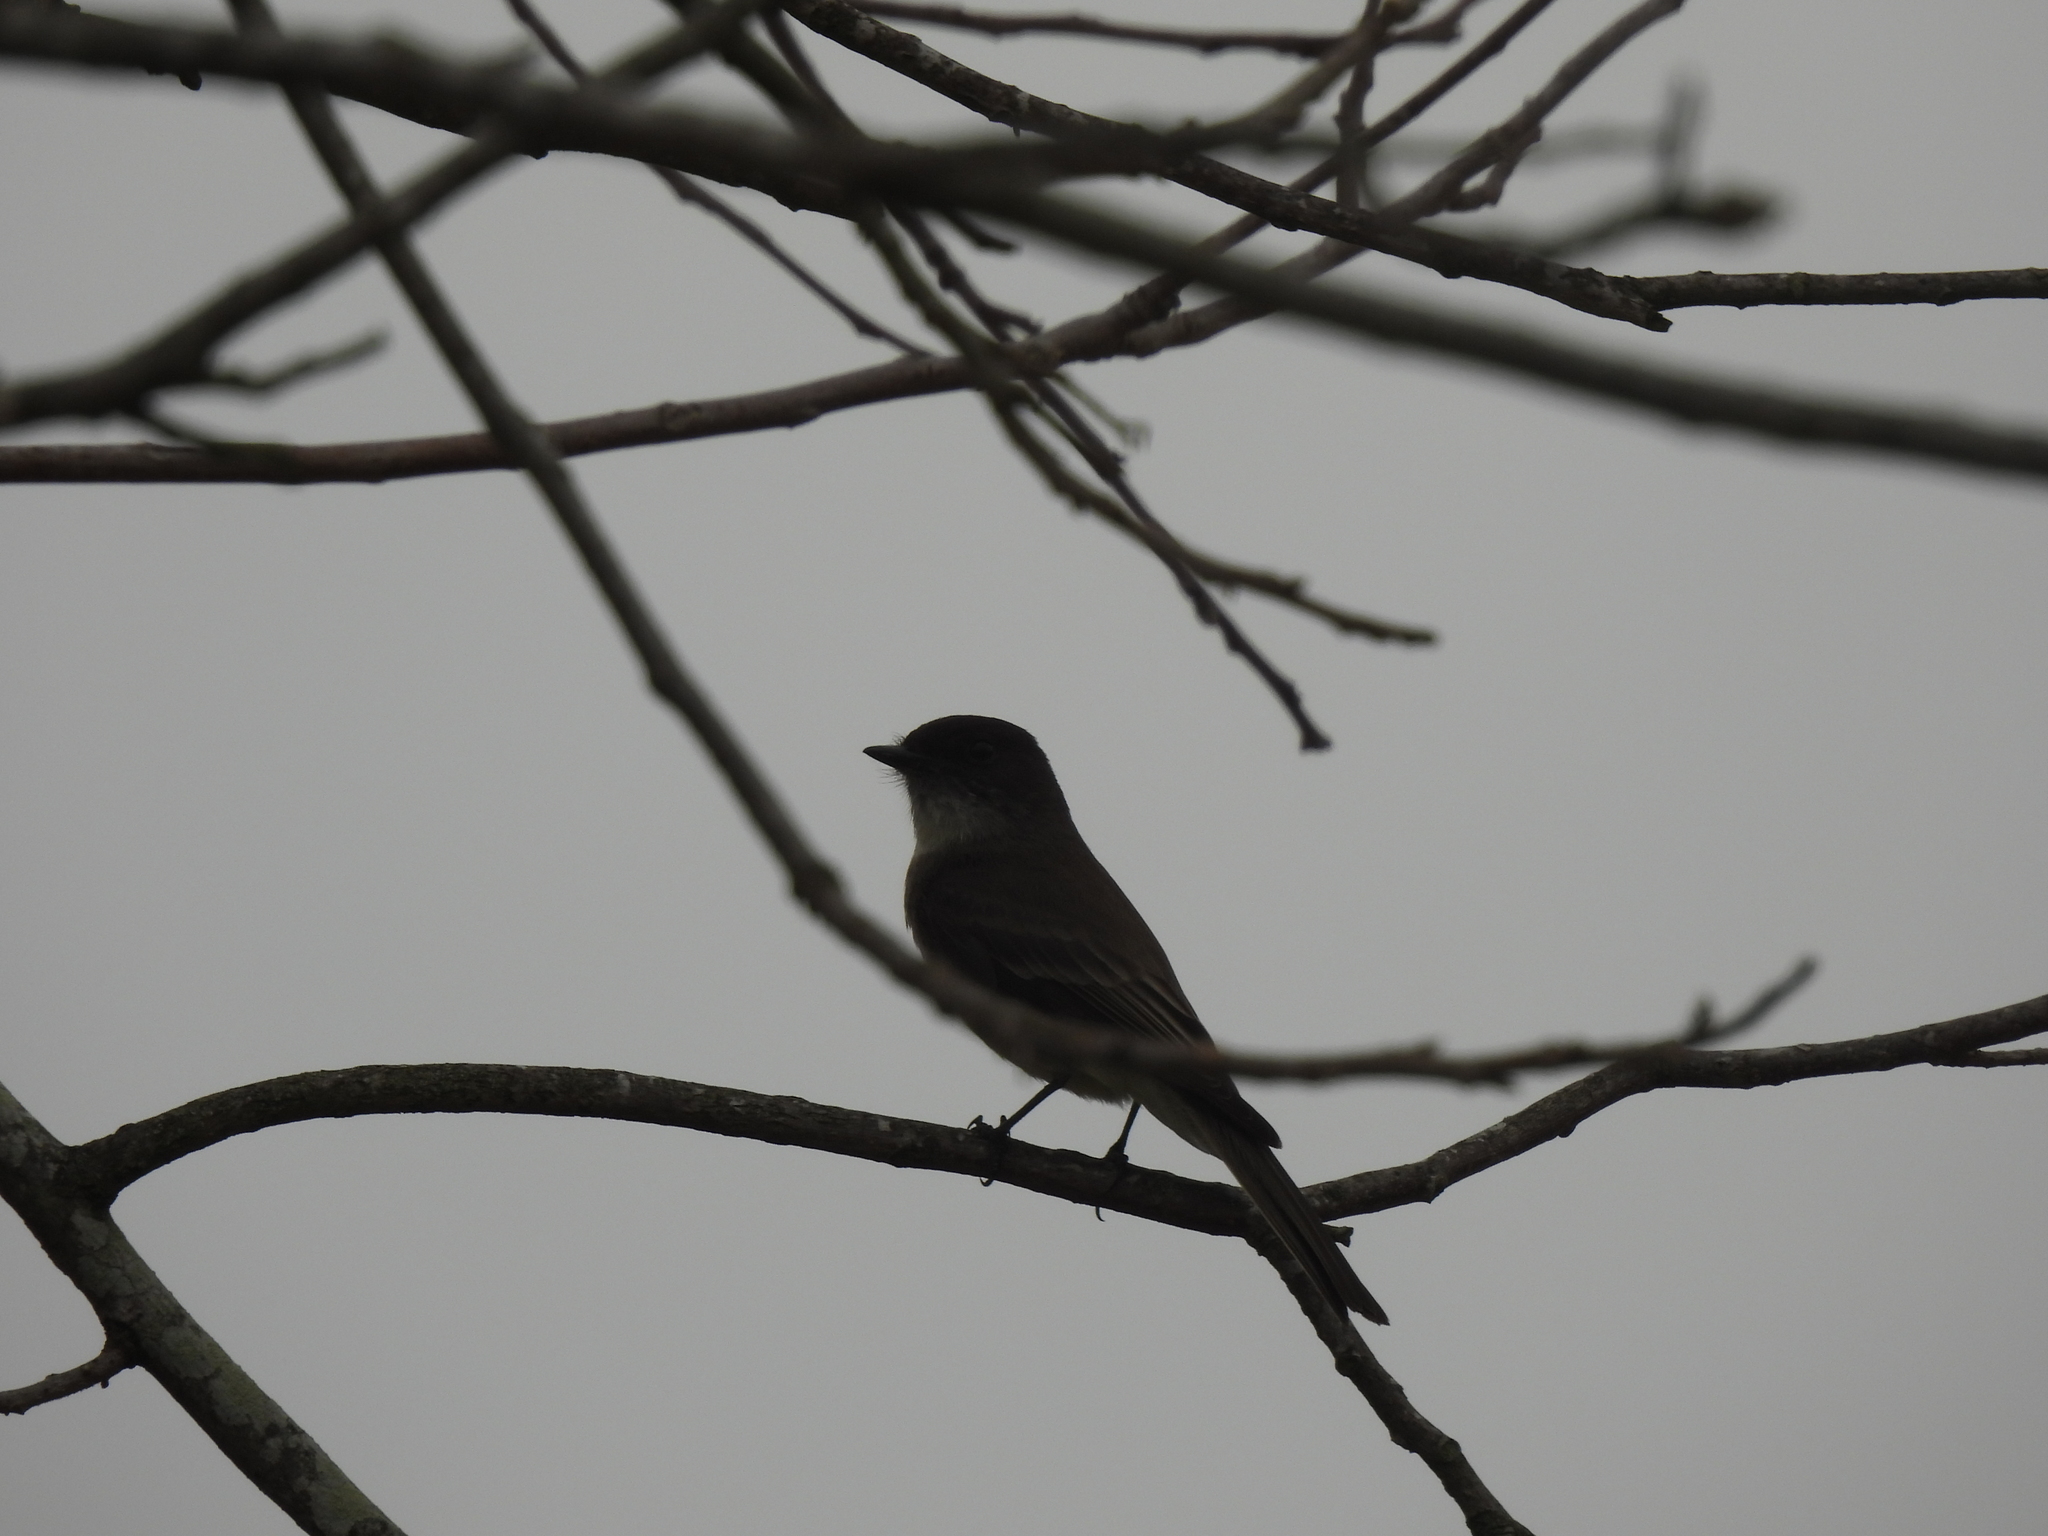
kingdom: Animalia
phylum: Chordata
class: Aves
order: Passeriformes
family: Tyrannidae
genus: Sayornis
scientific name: Sayornis phoebe
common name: Eastern phoebe
